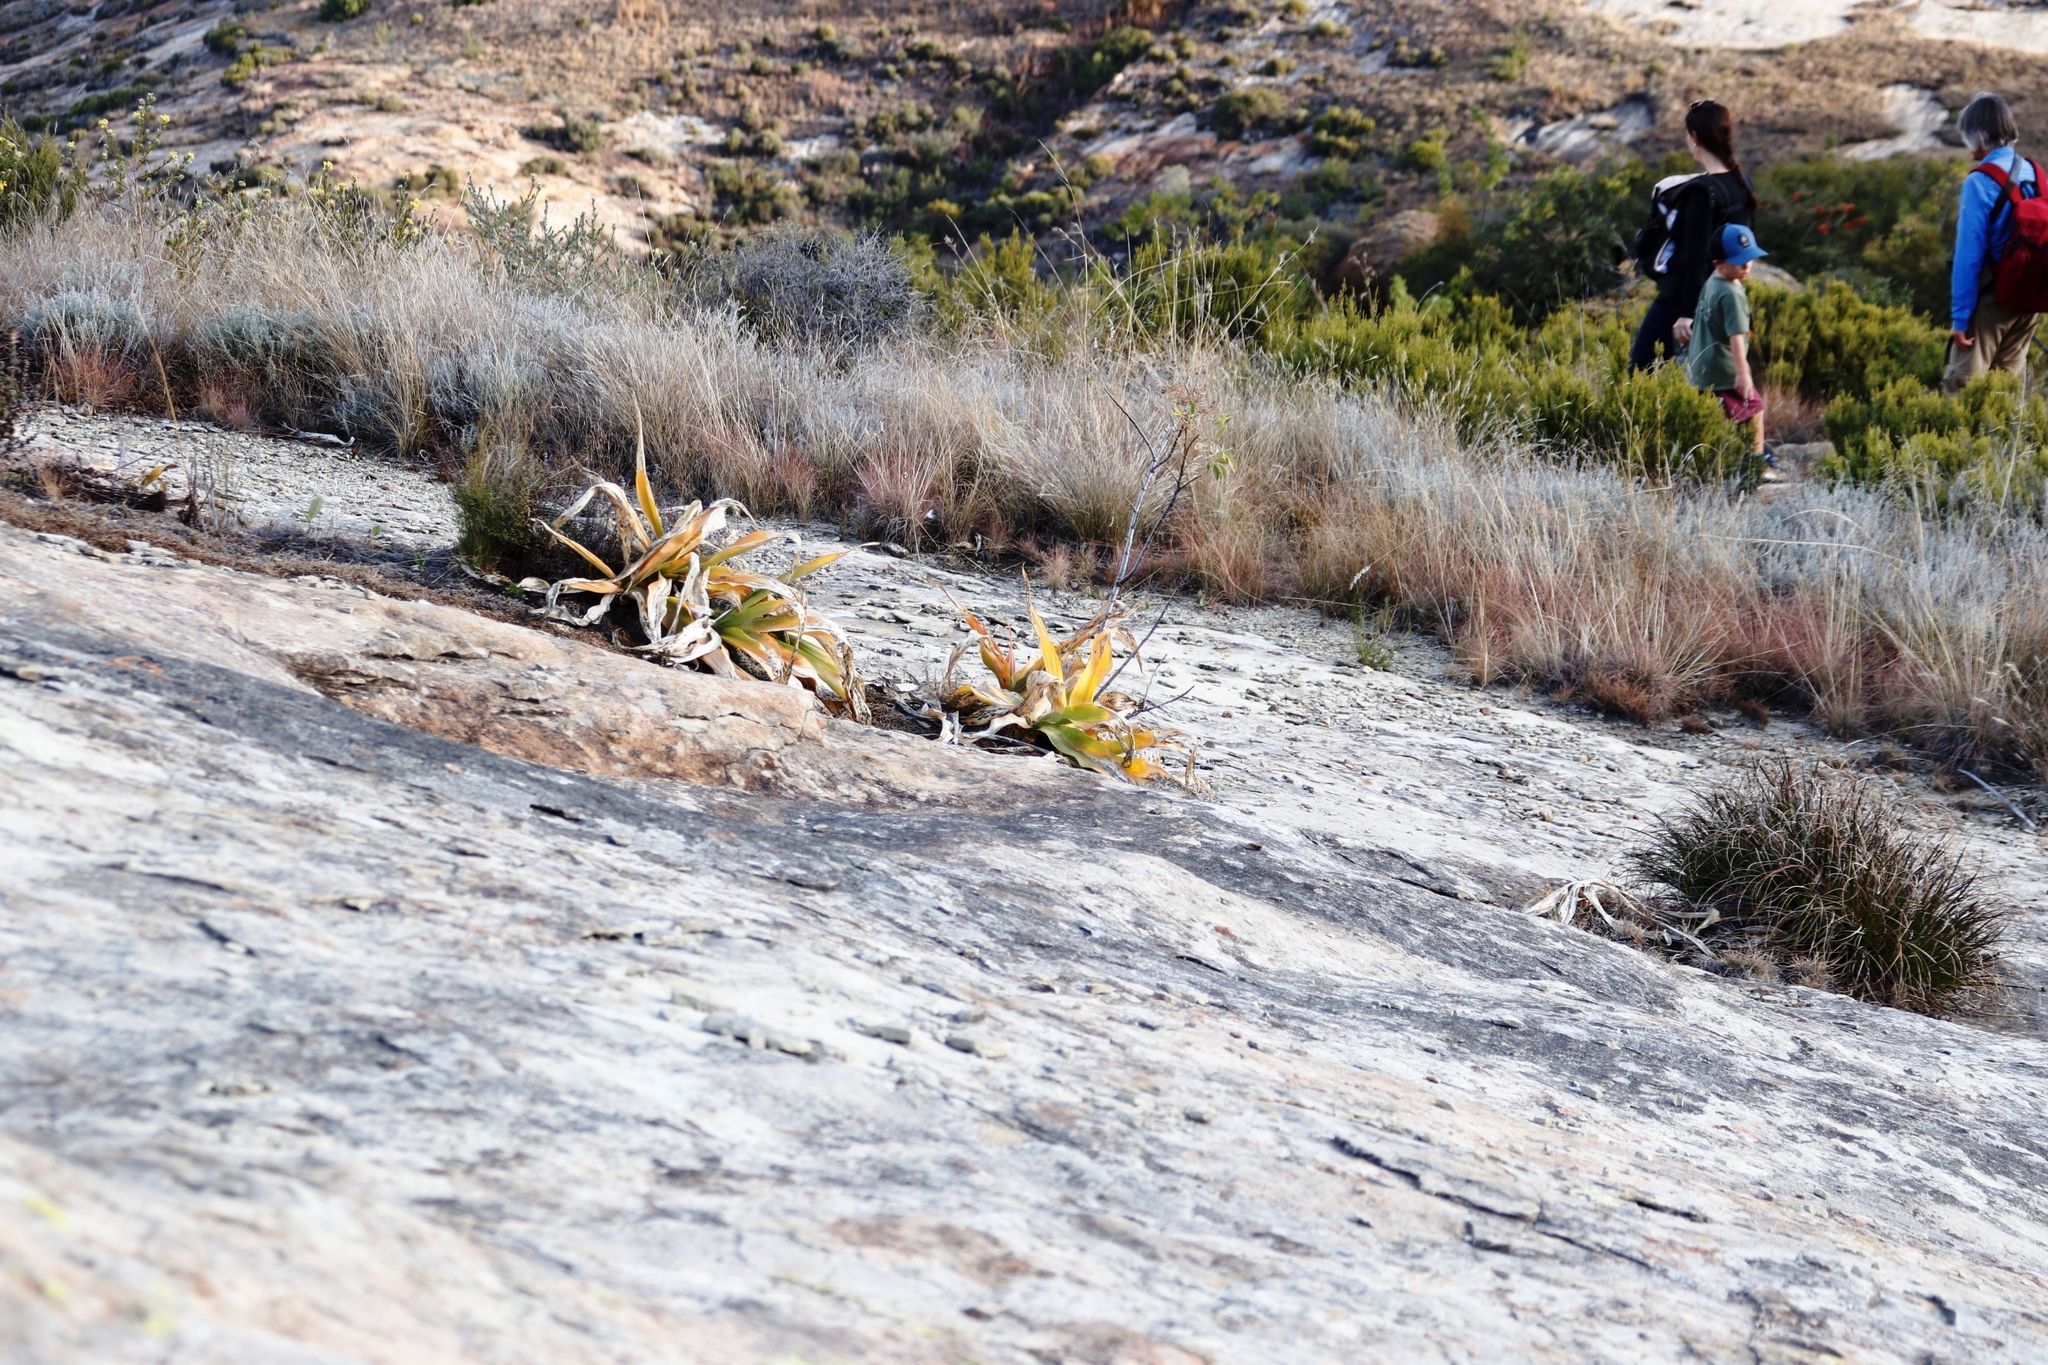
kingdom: Plantae
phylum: Tracheophyta
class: Liliopsida
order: Asparagales
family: Asparagaceae
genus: Merwilla
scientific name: Merwilla plumbea
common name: Blue-squill
